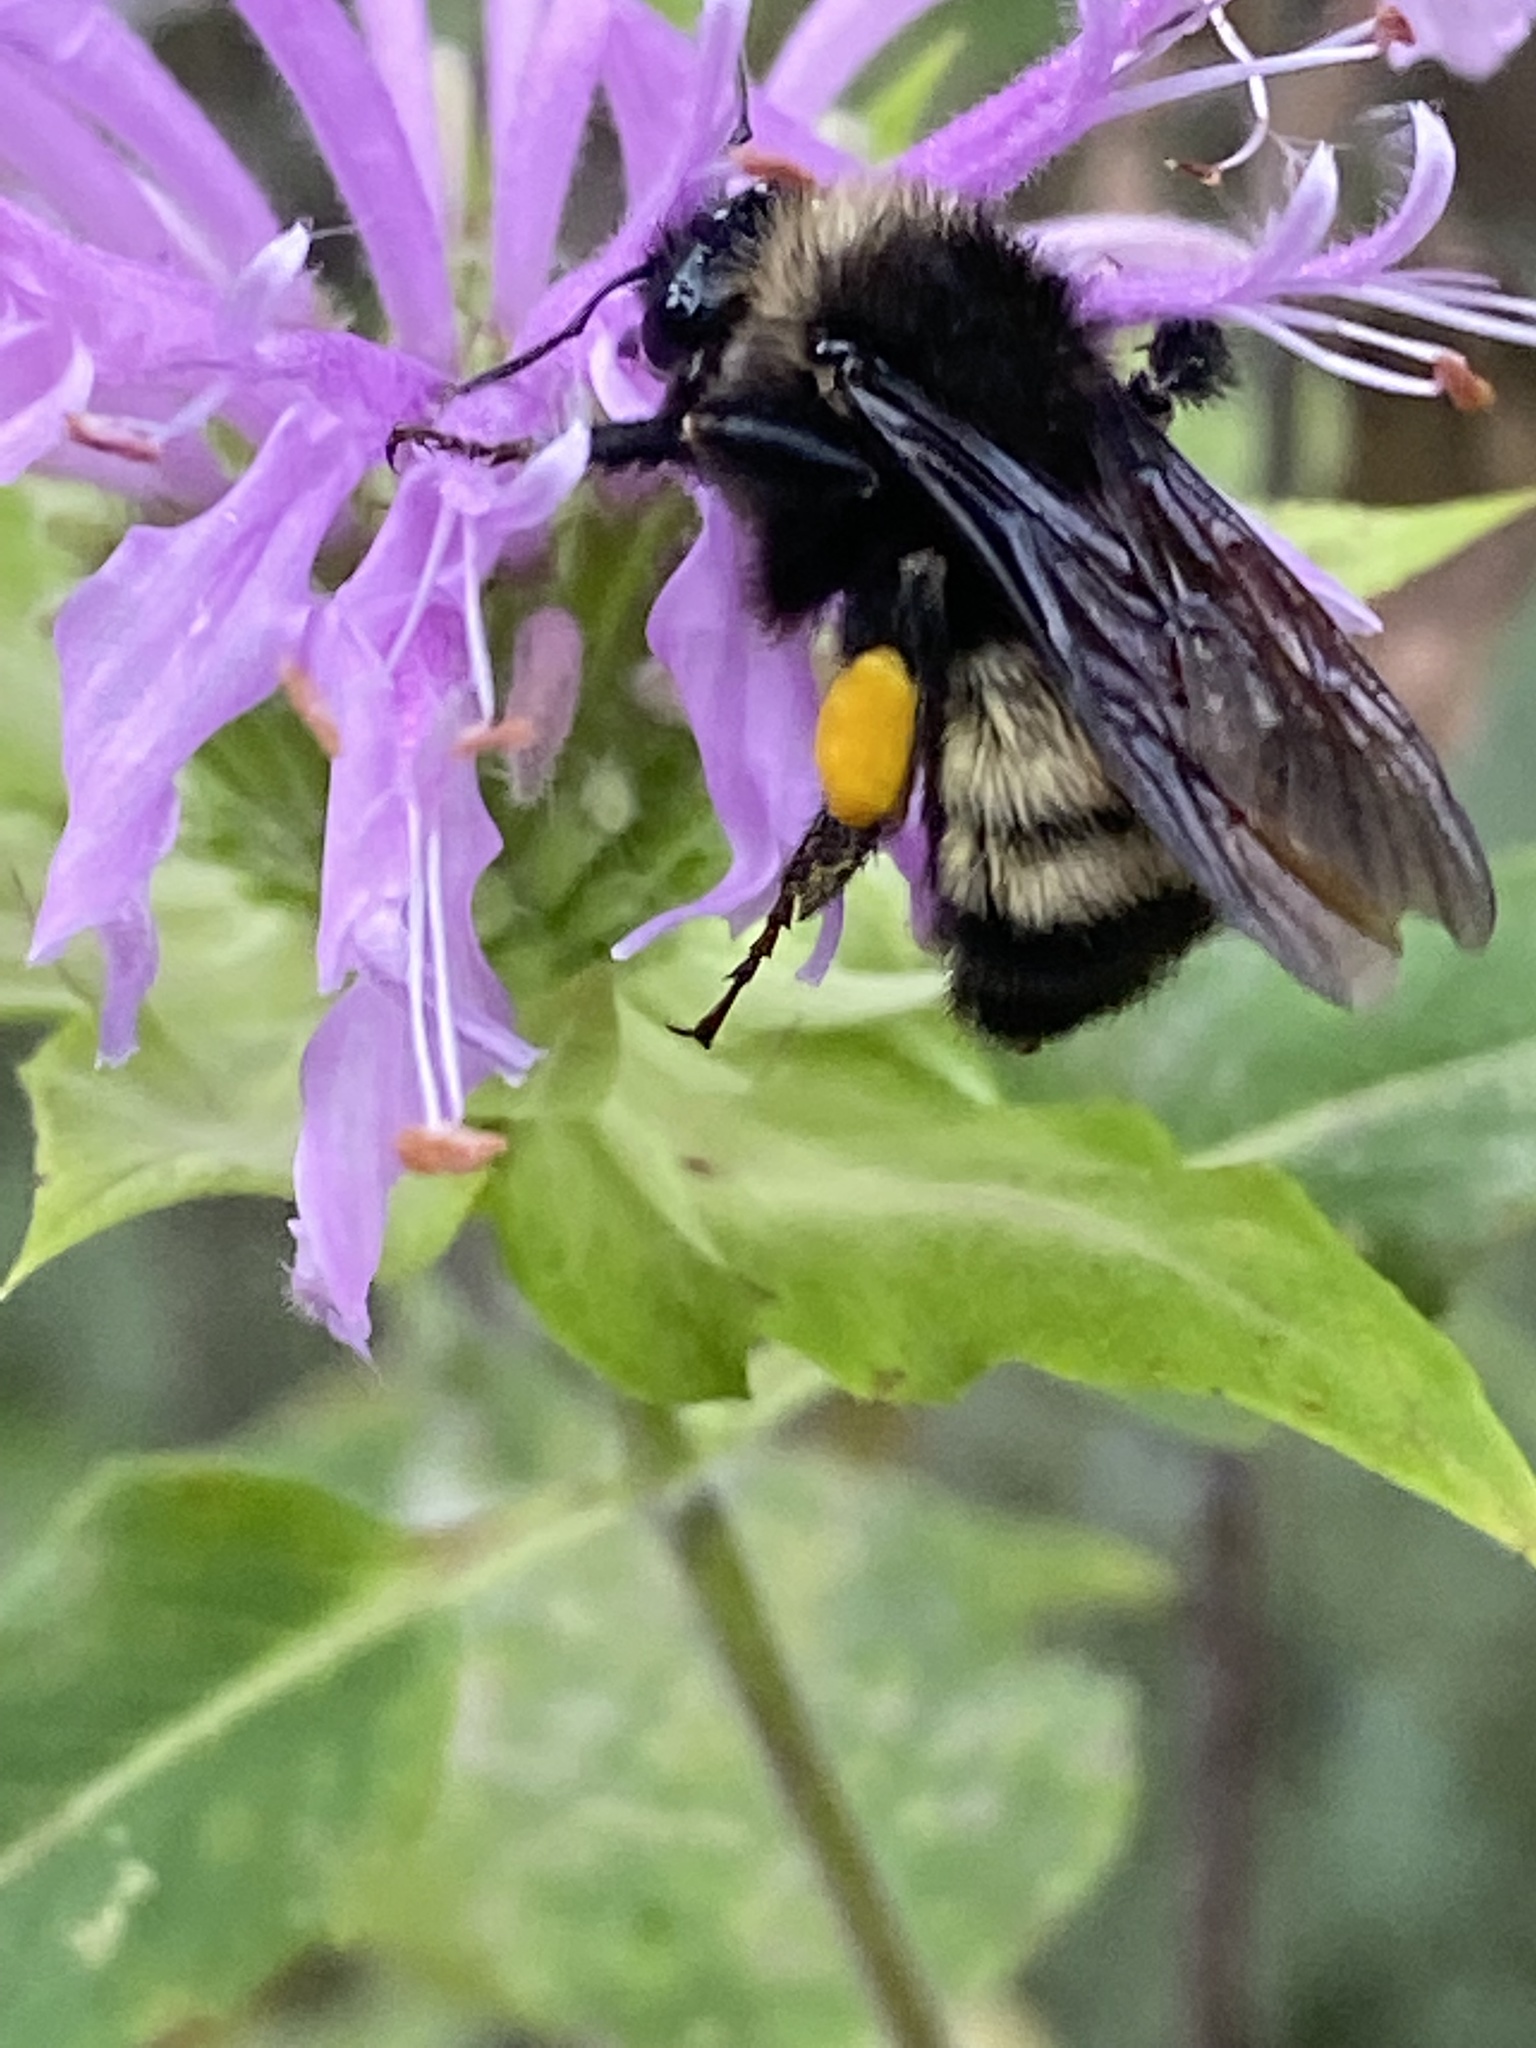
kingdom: Animalia
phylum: Arthropoda
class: Insecta
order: Hymenoptera
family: Apidae
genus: Bombus
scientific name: Bombus pensylvanicus
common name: Bumble bee
